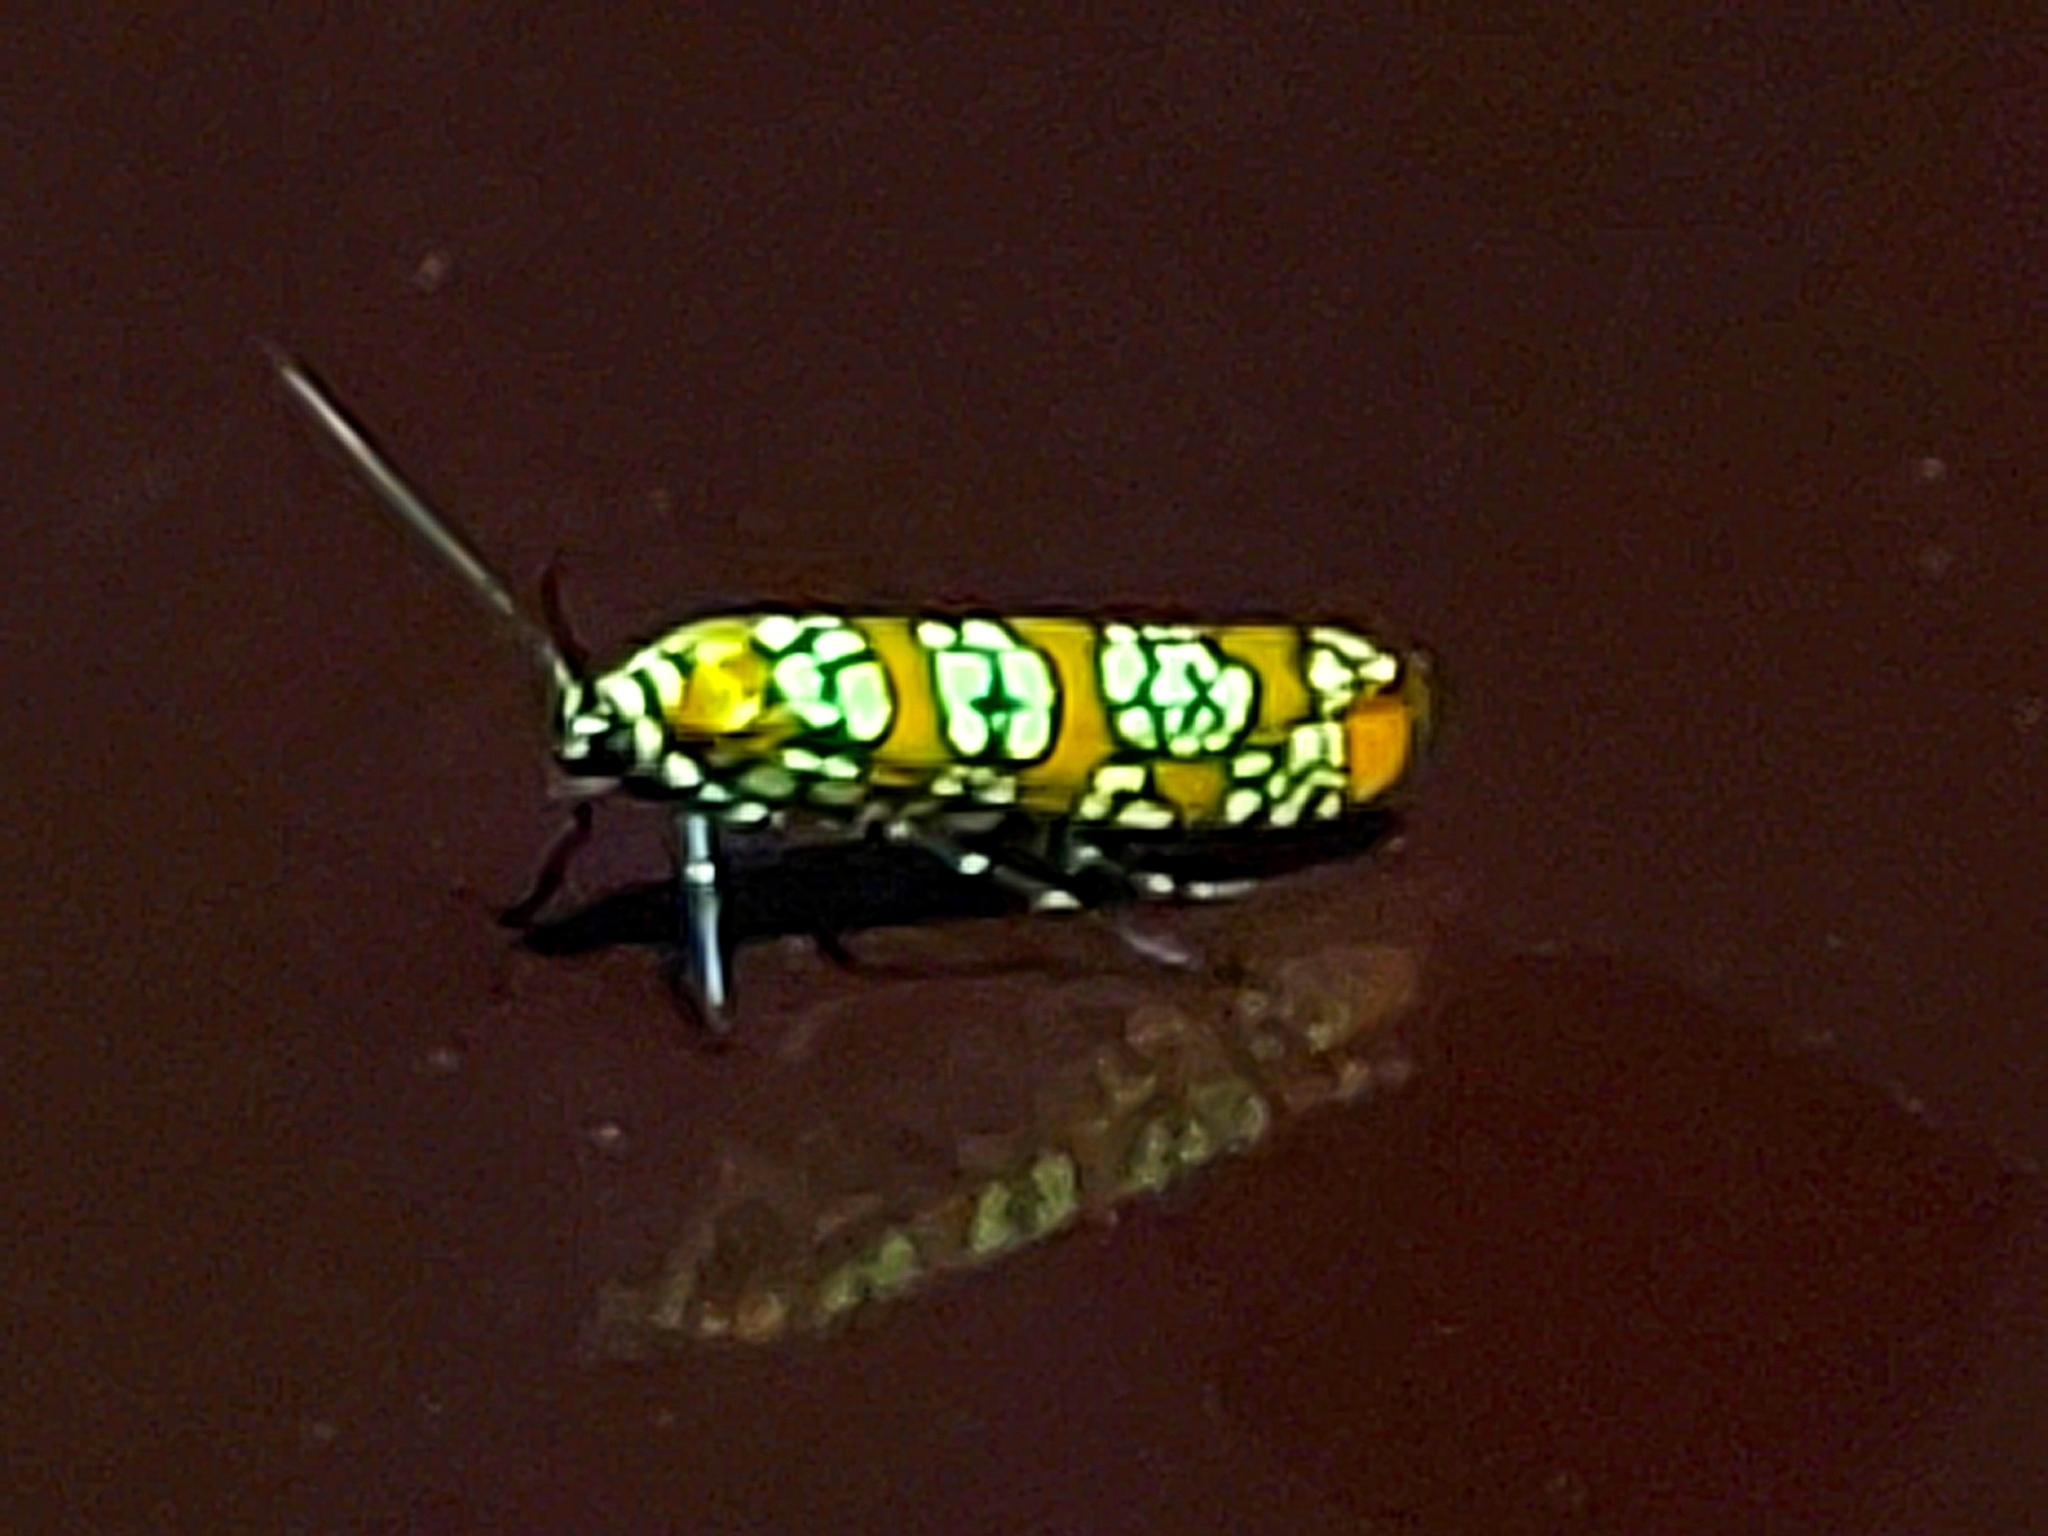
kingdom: Animalia
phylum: Arthropoda
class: Insecta
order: Lepidoptera
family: Attevidae
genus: Atteva
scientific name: Atteva punctella
